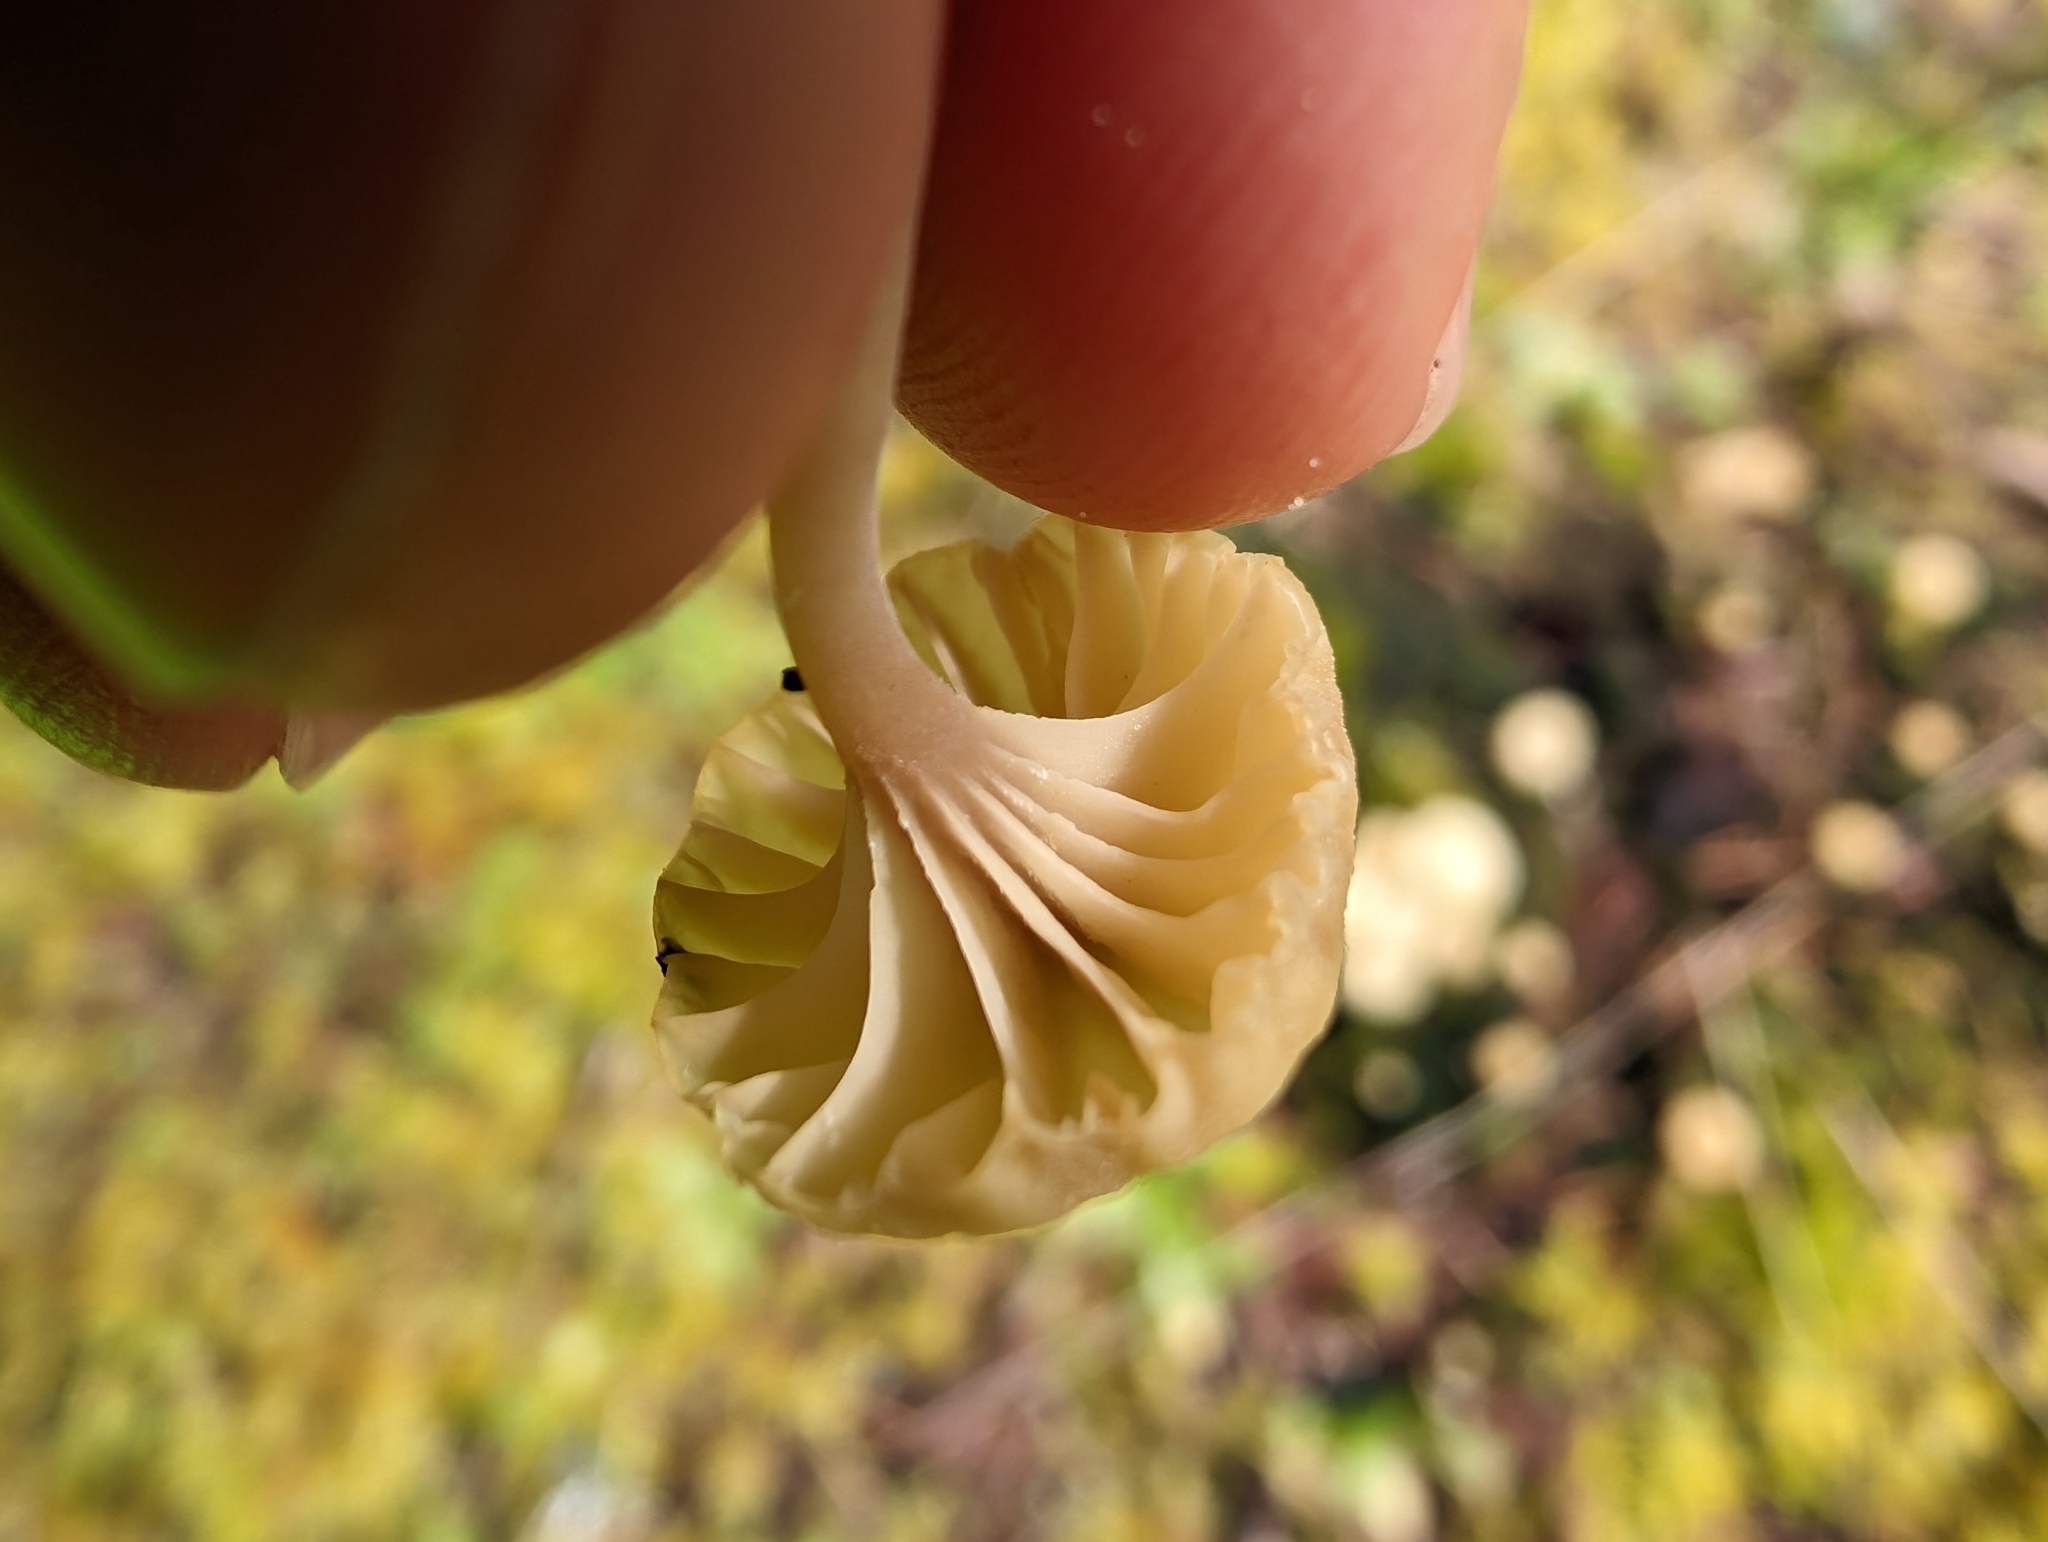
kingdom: Fungi
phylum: Basidiomycota
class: Agaricomycetes
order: Agaricales
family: Hygrophoraceae
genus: Lichenomphalia
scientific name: Lichenomphalia
